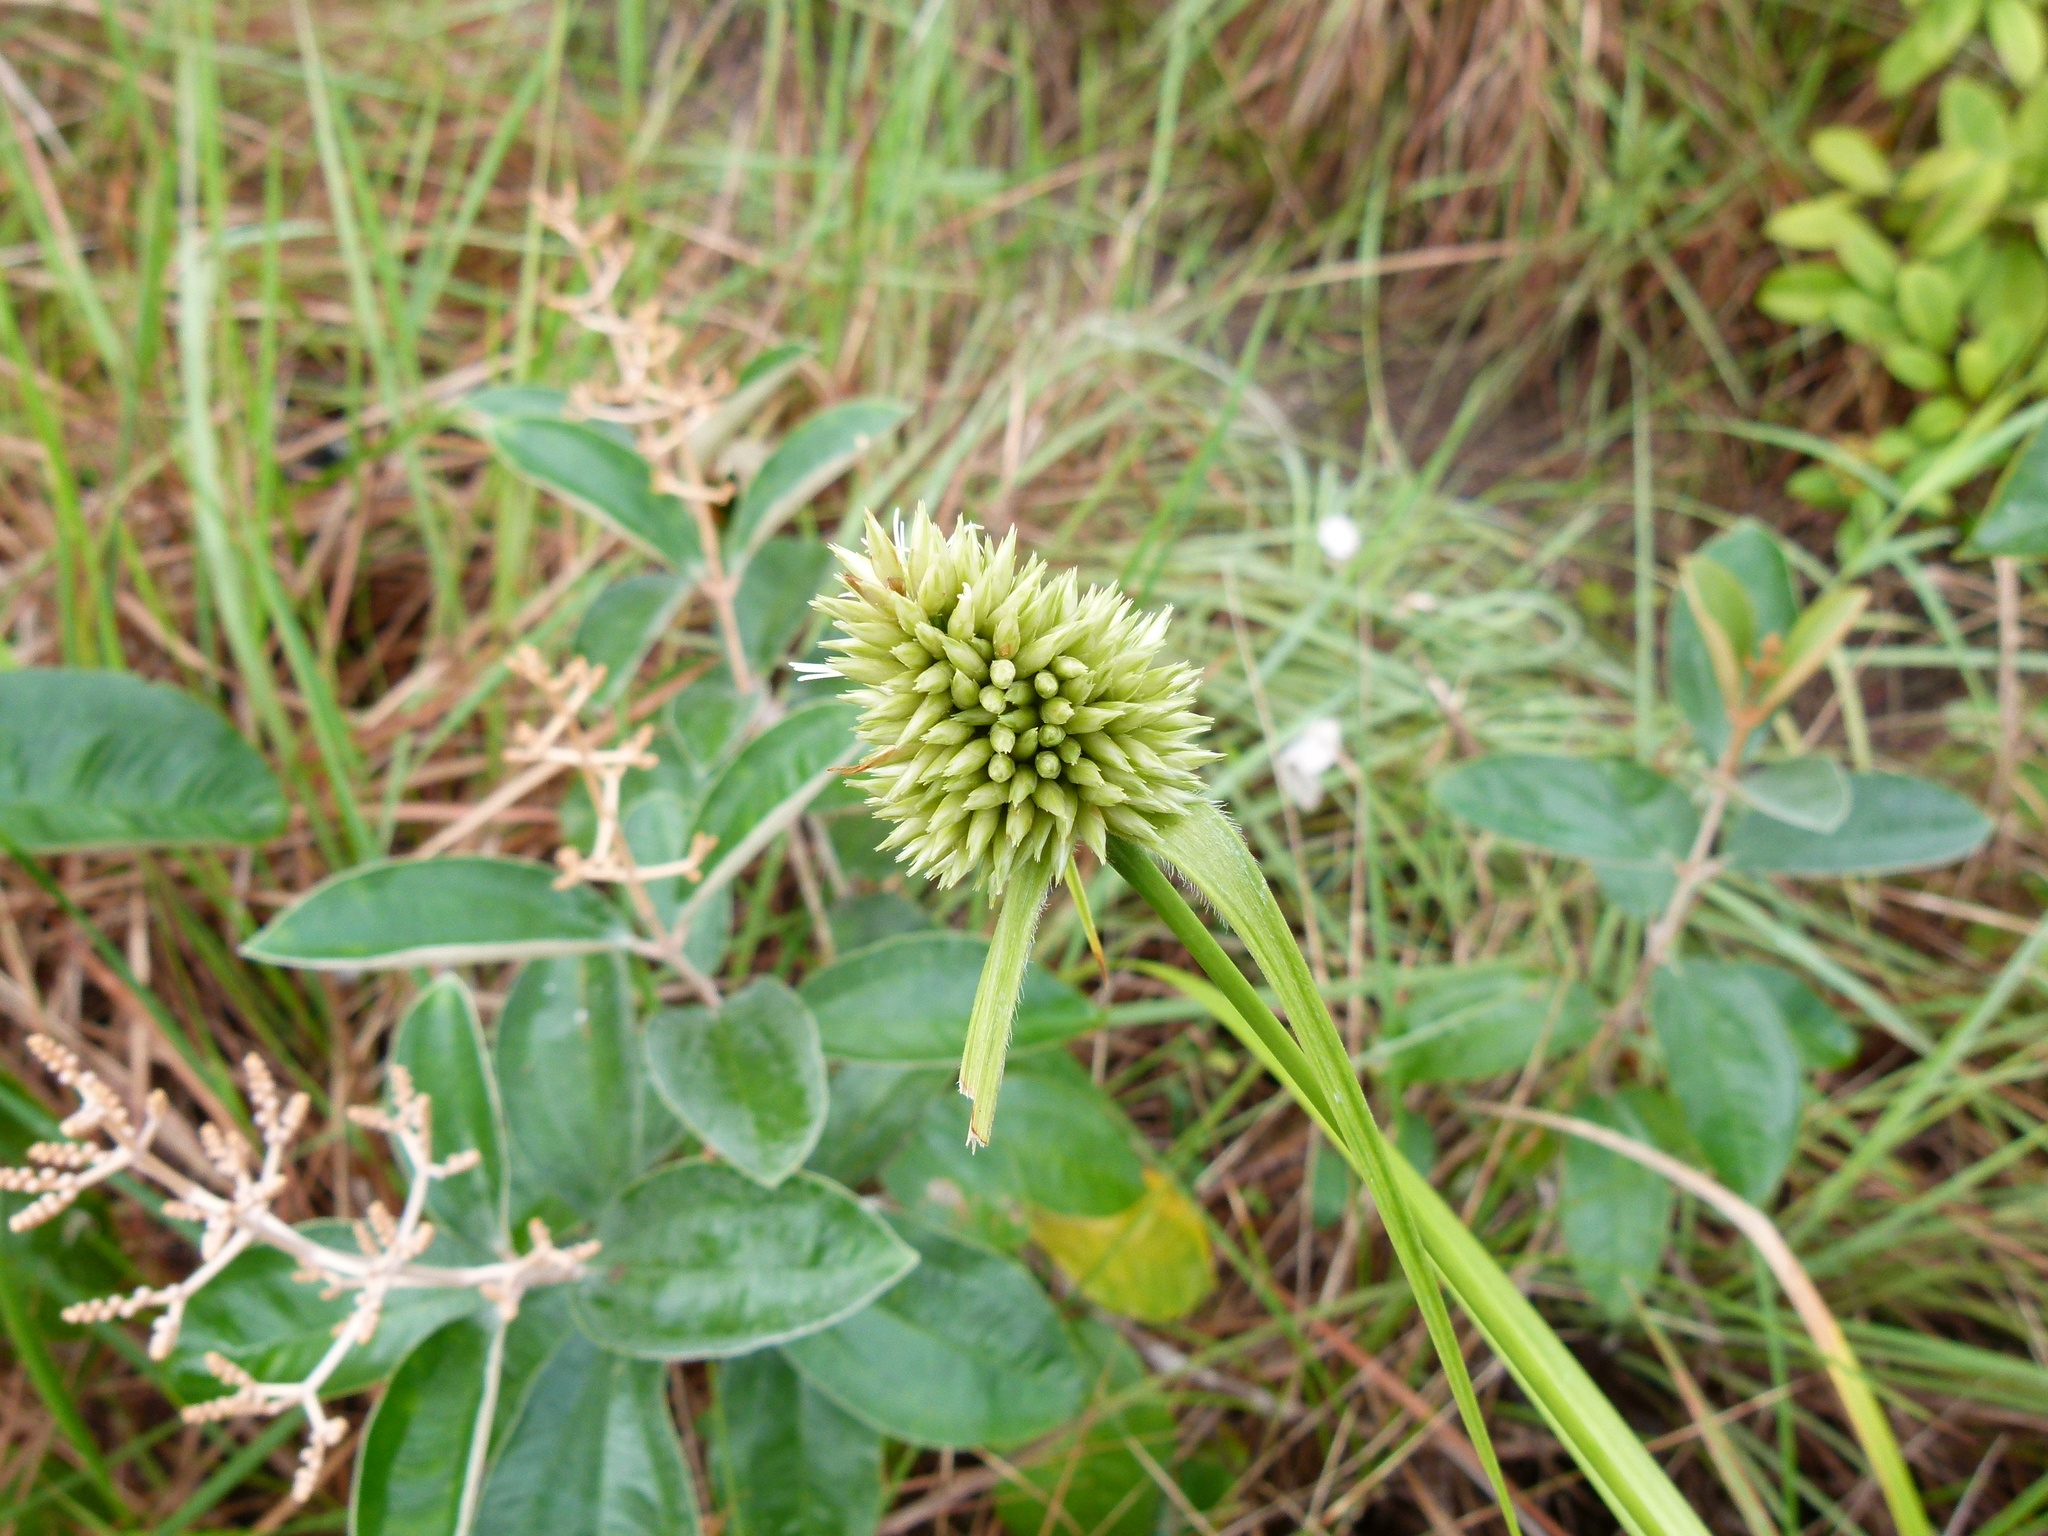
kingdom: Plantae
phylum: Tracheophyta
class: Liliopsida
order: Poales
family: Cyperaceae
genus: Rhynchospora
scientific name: Rhynchospora cephalotes
